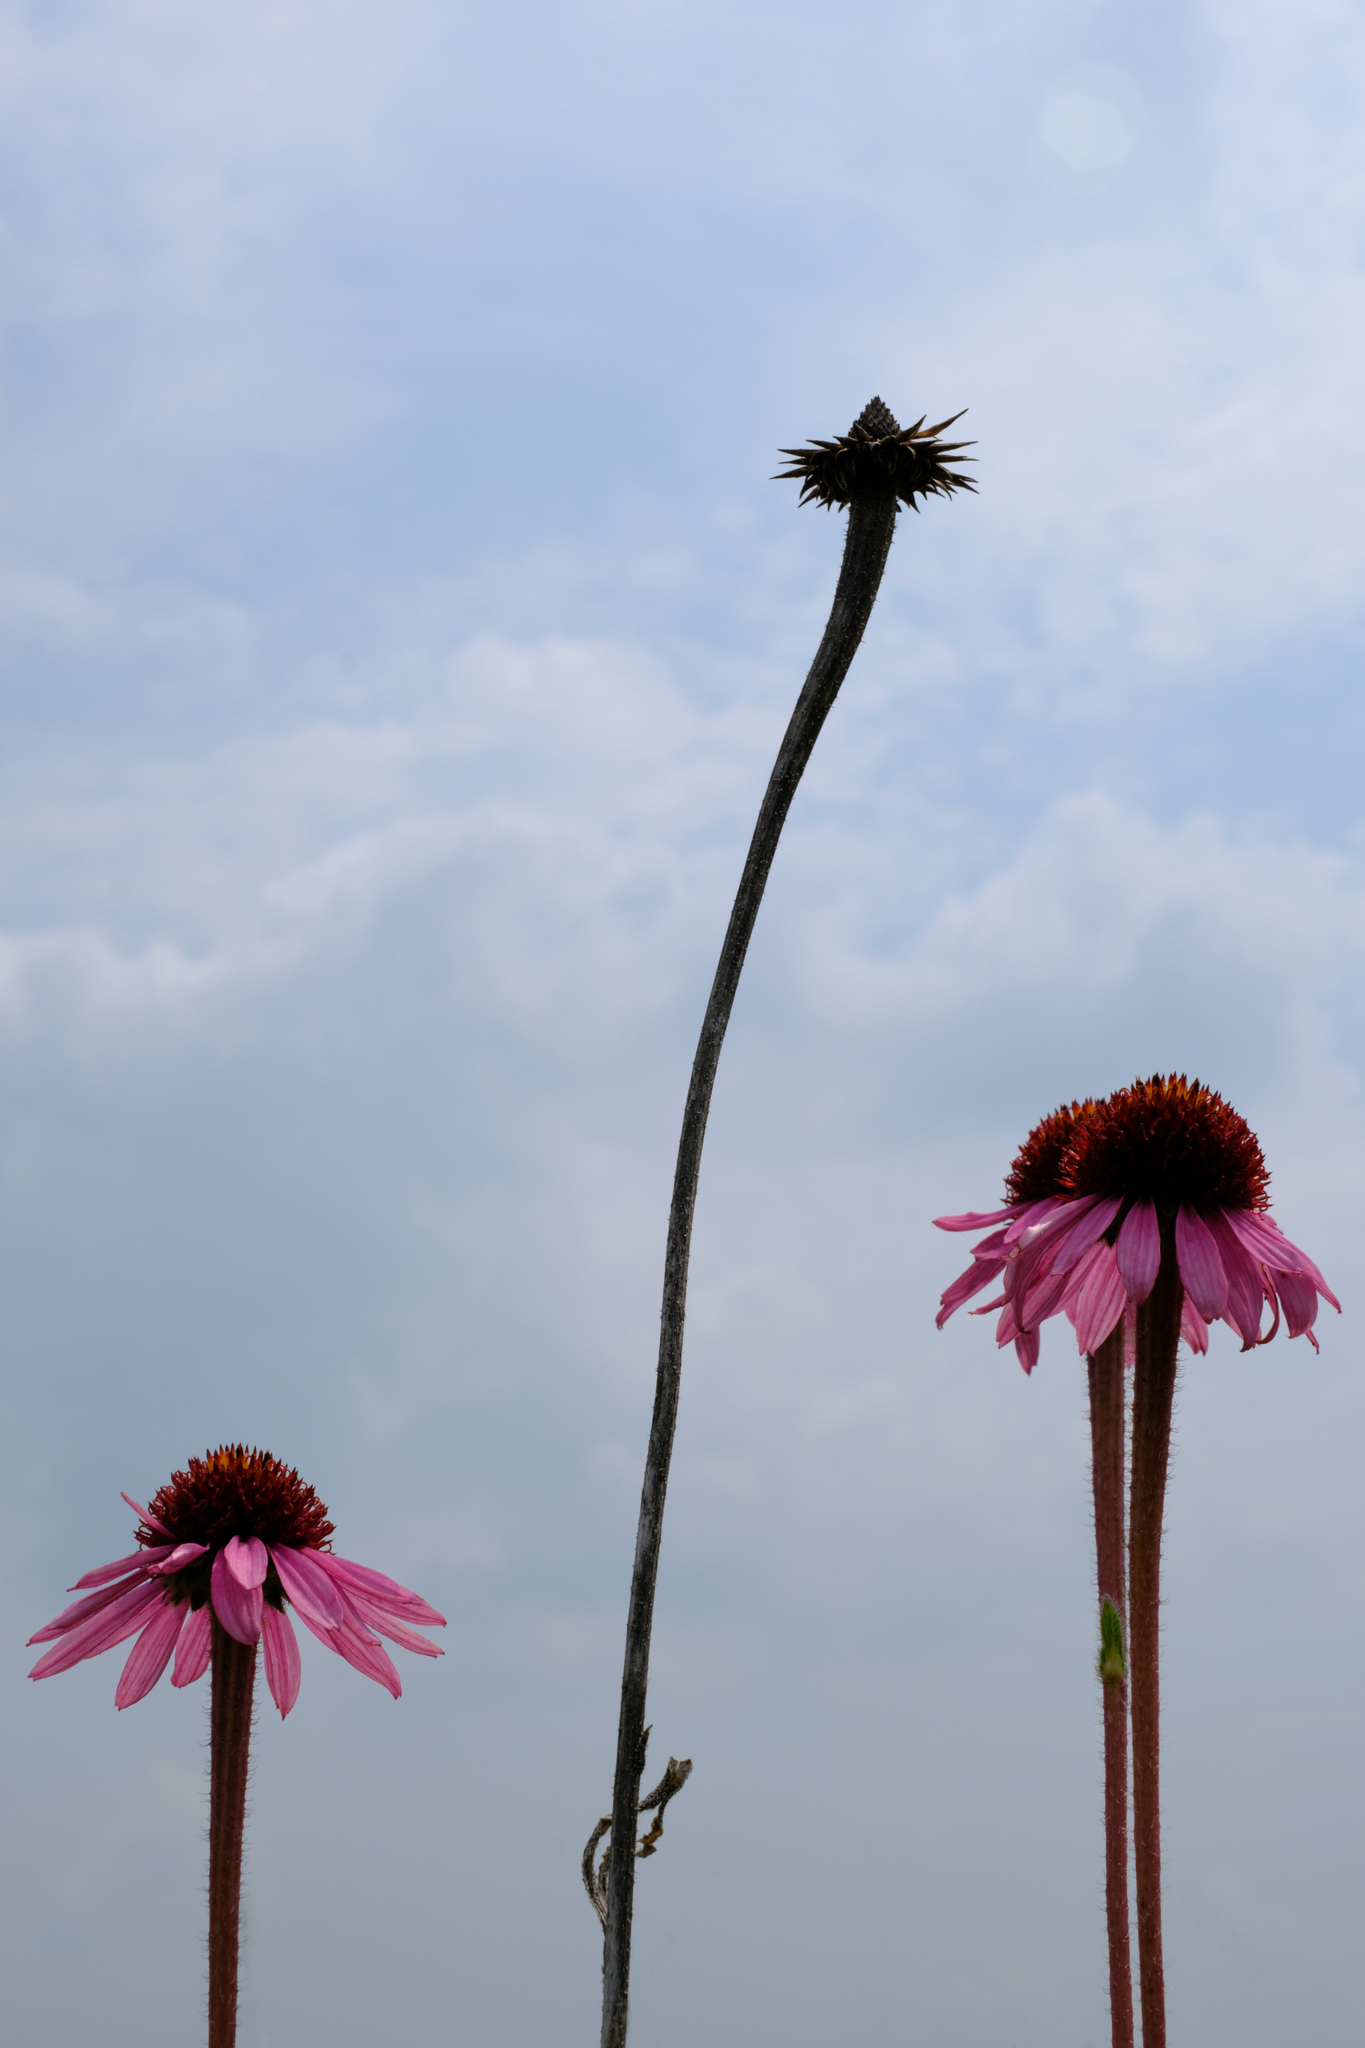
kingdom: Plantae
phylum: Tracheophyta
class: Magnoliopsida
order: Asterales
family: Asteraceae
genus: Echinacea
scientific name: Echinacea angustifolia
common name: Black-sampson echinacea
